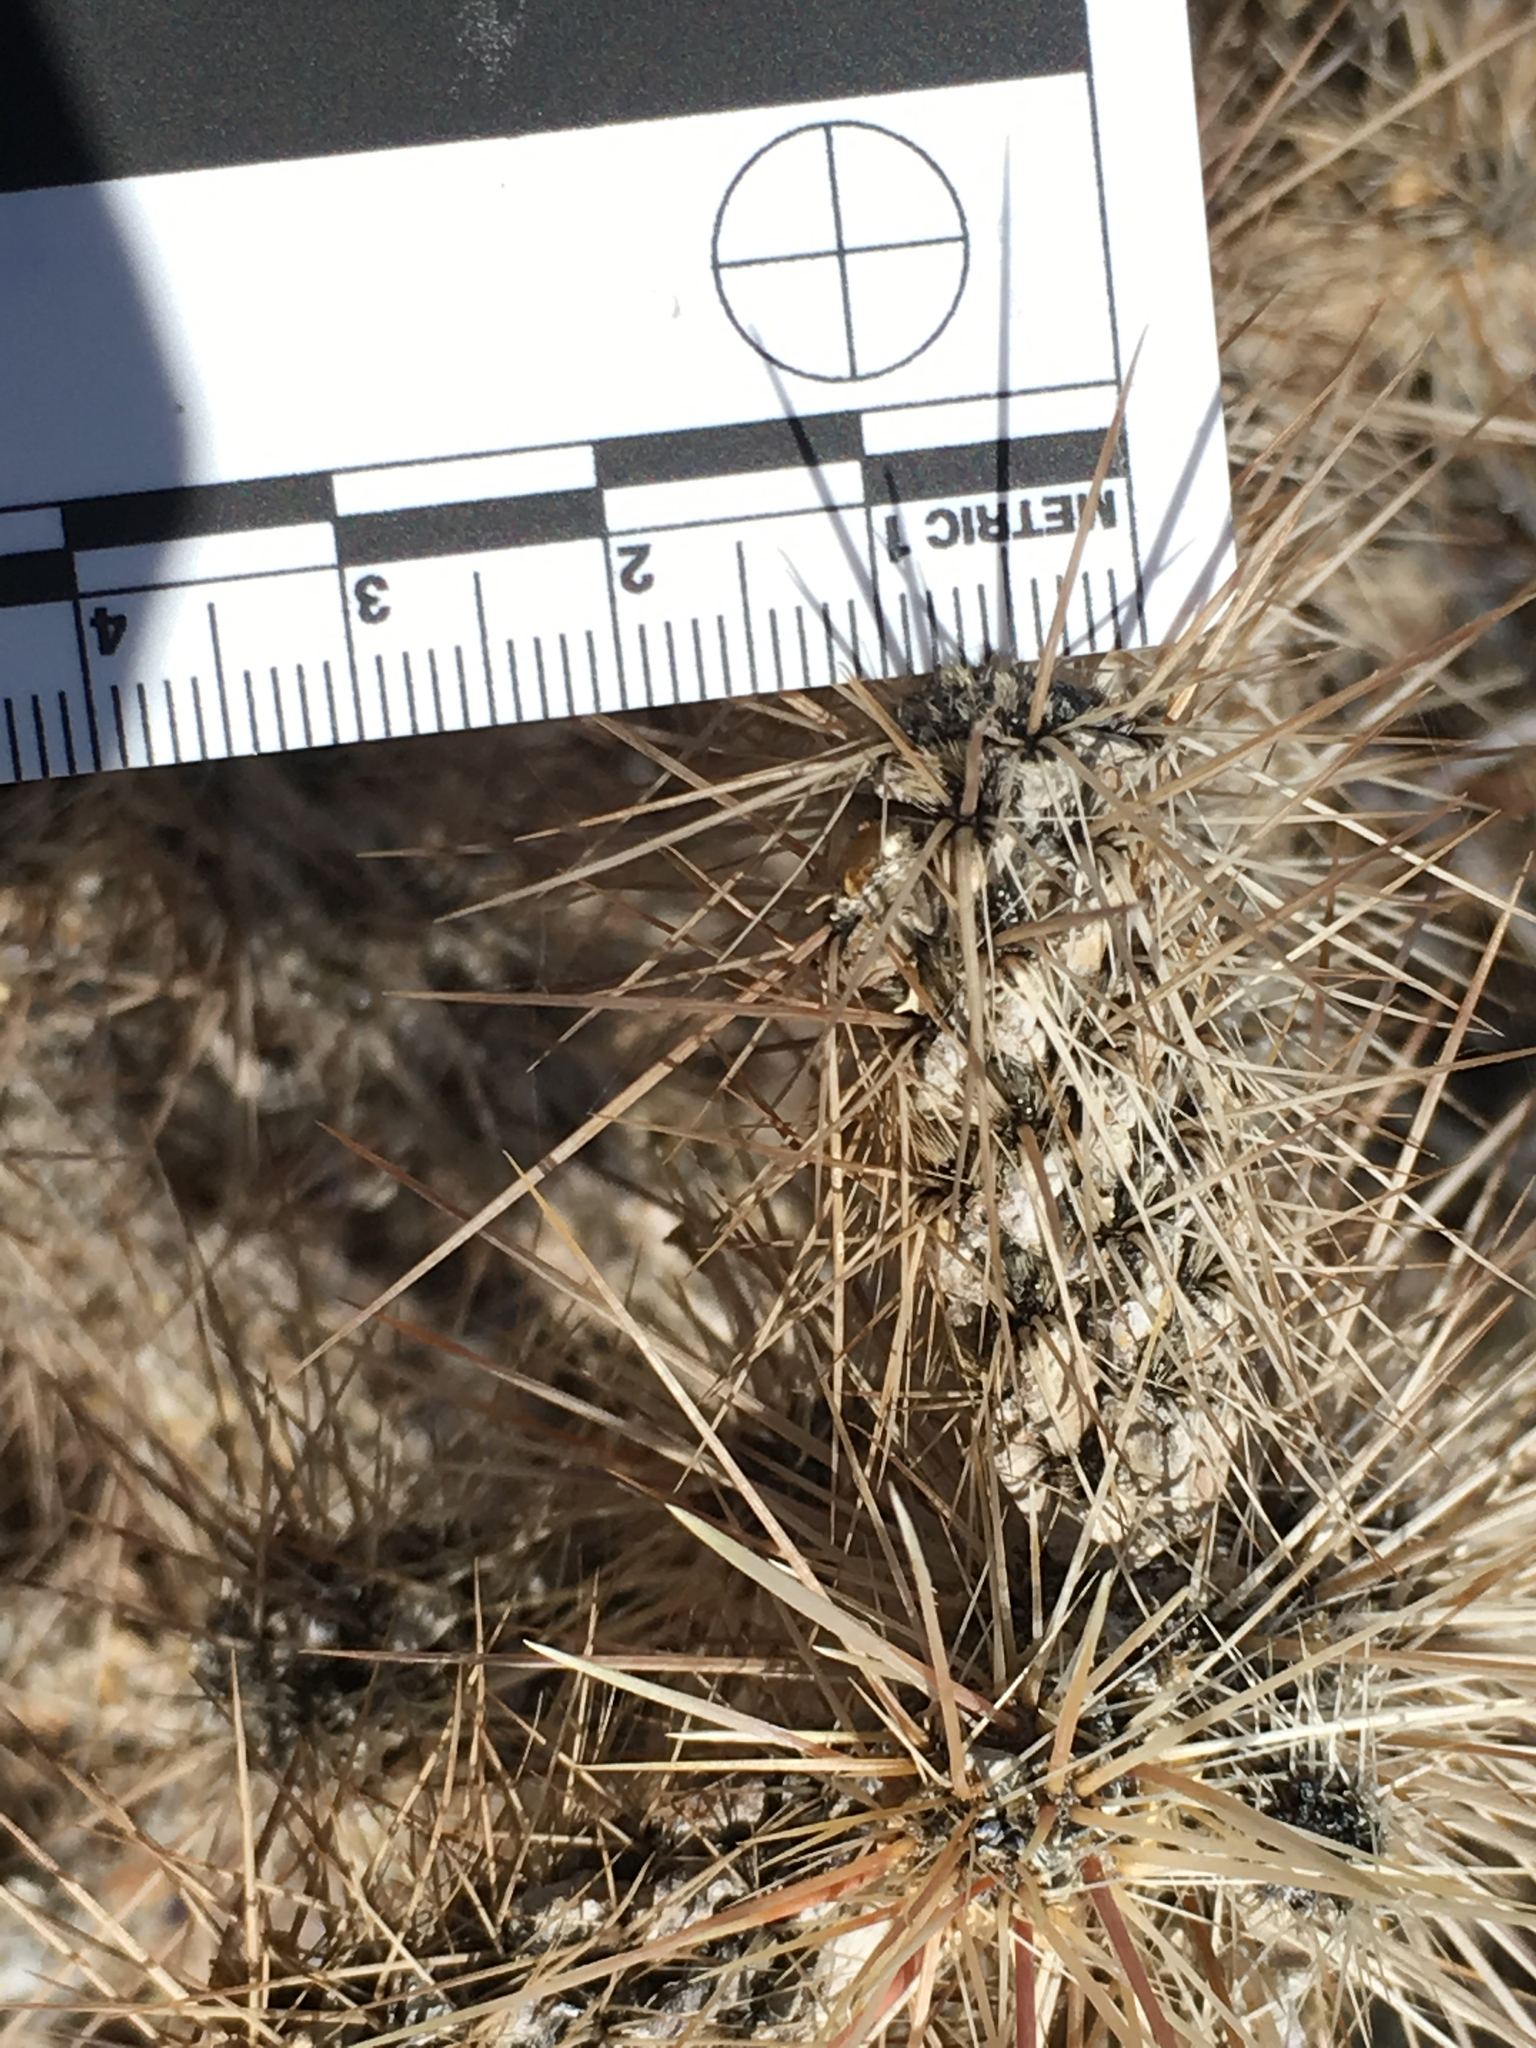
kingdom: Plantae
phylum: Tracheophyta
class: Magnoliopsida
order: Caryophyllales
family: Cactaceae
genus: Cylindropuntia
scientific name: Cylindropuntia echinocarpa
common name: Ground cholla
